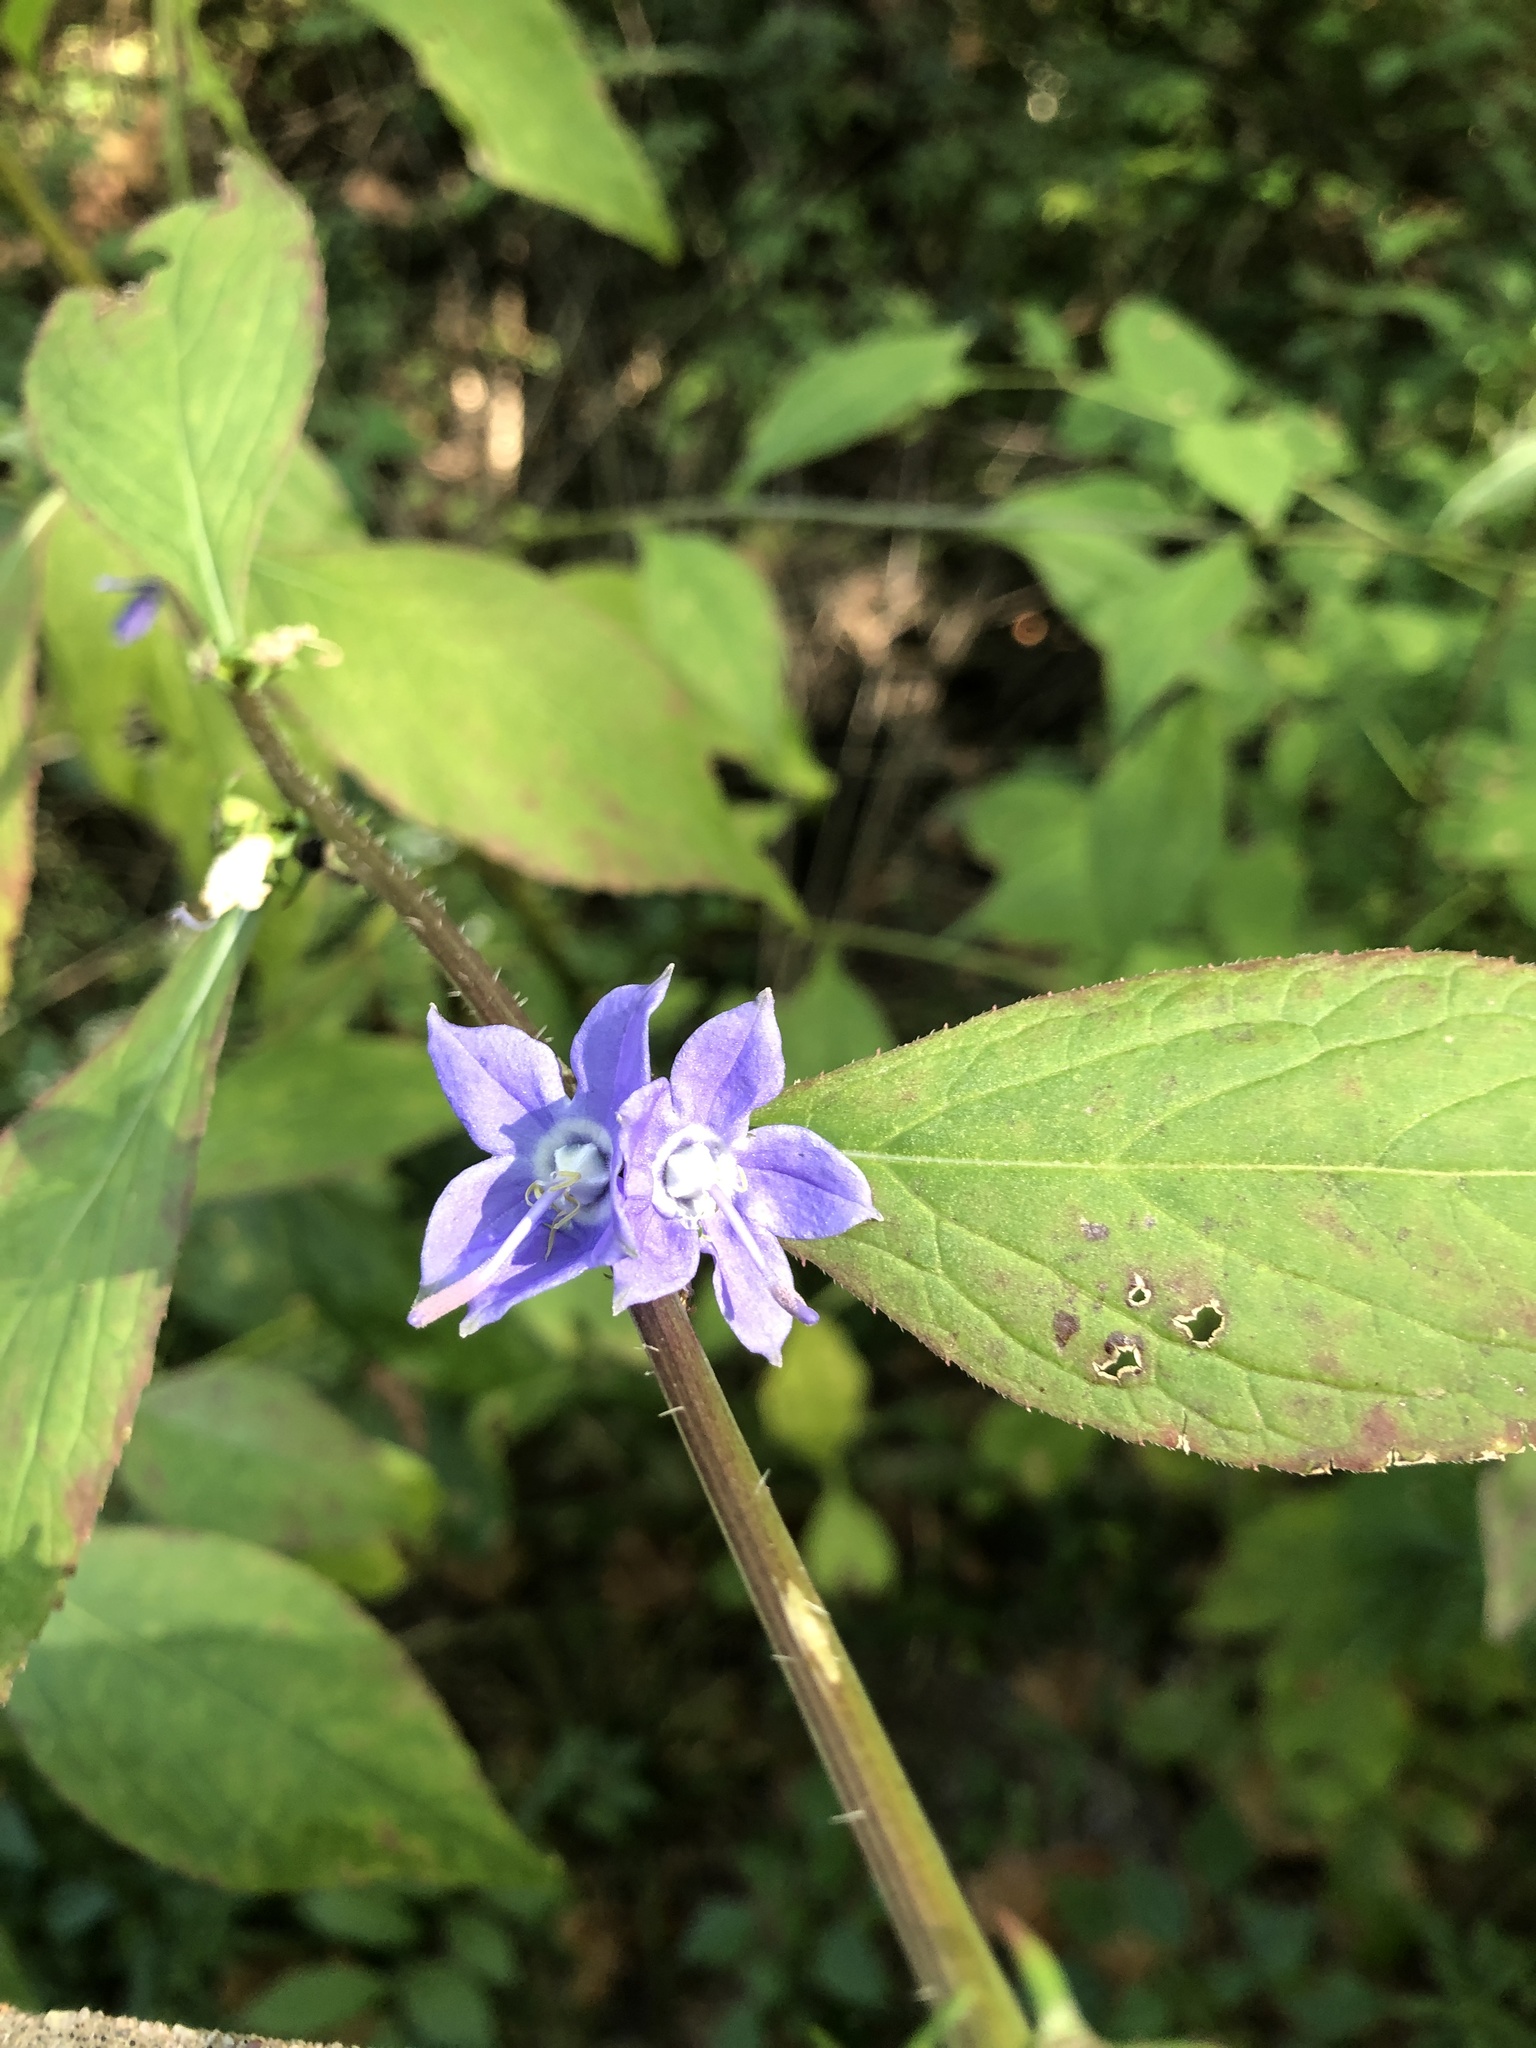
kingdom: Plantae
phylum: Tracheophyta
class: Magnoliopsida
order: Asterales
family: Campanulaceae
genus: Campanulastrum
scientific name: Campanulastrum americanum
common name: American bellflower
